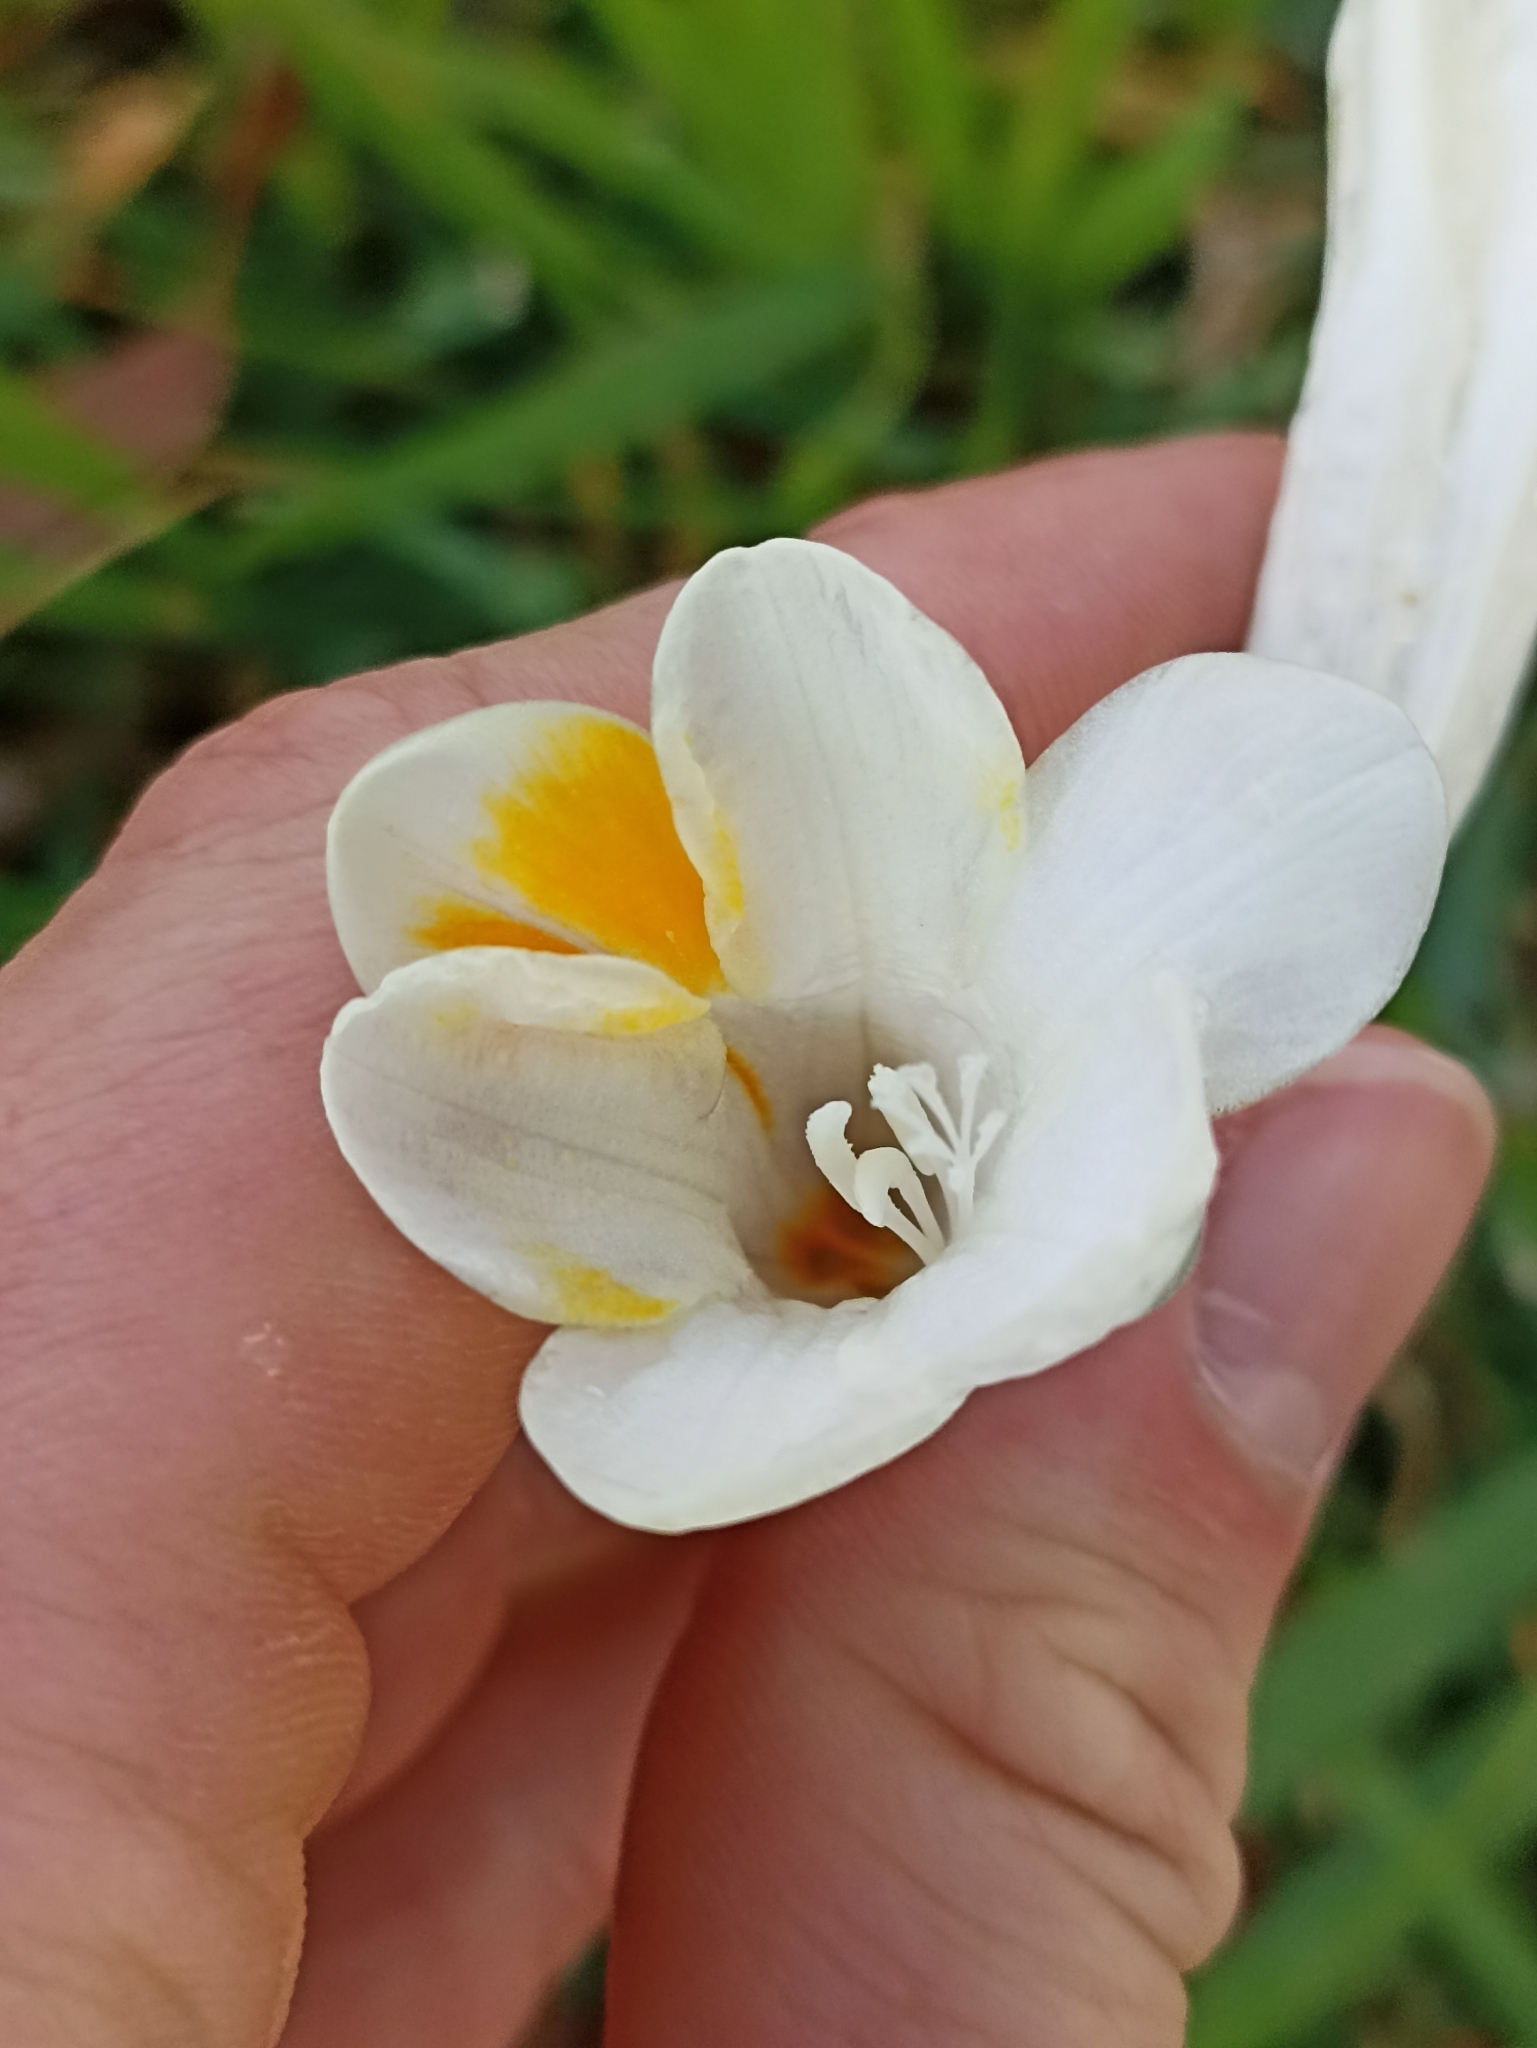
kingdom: Plantae
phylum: Tracheophyta
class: Liliopsida
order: Asparagales
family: Iridaceae
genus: Freesia
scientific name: Freesia leichtlinii
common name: Freesia
